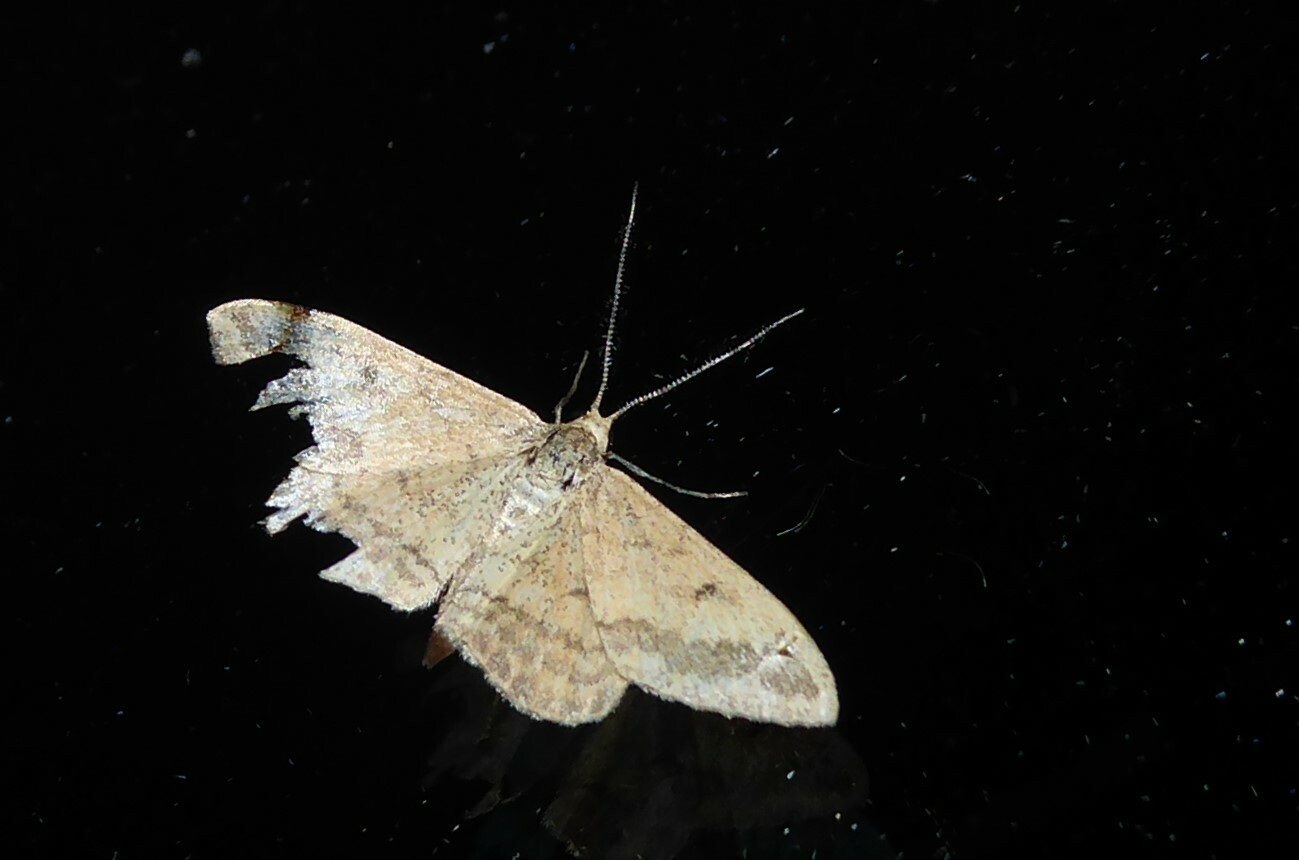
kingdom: Animalia
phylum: Arthropoda
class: Insecta
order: Lepidoptera
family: Geometridae
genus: Scopula
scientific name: Scopula rubraria
